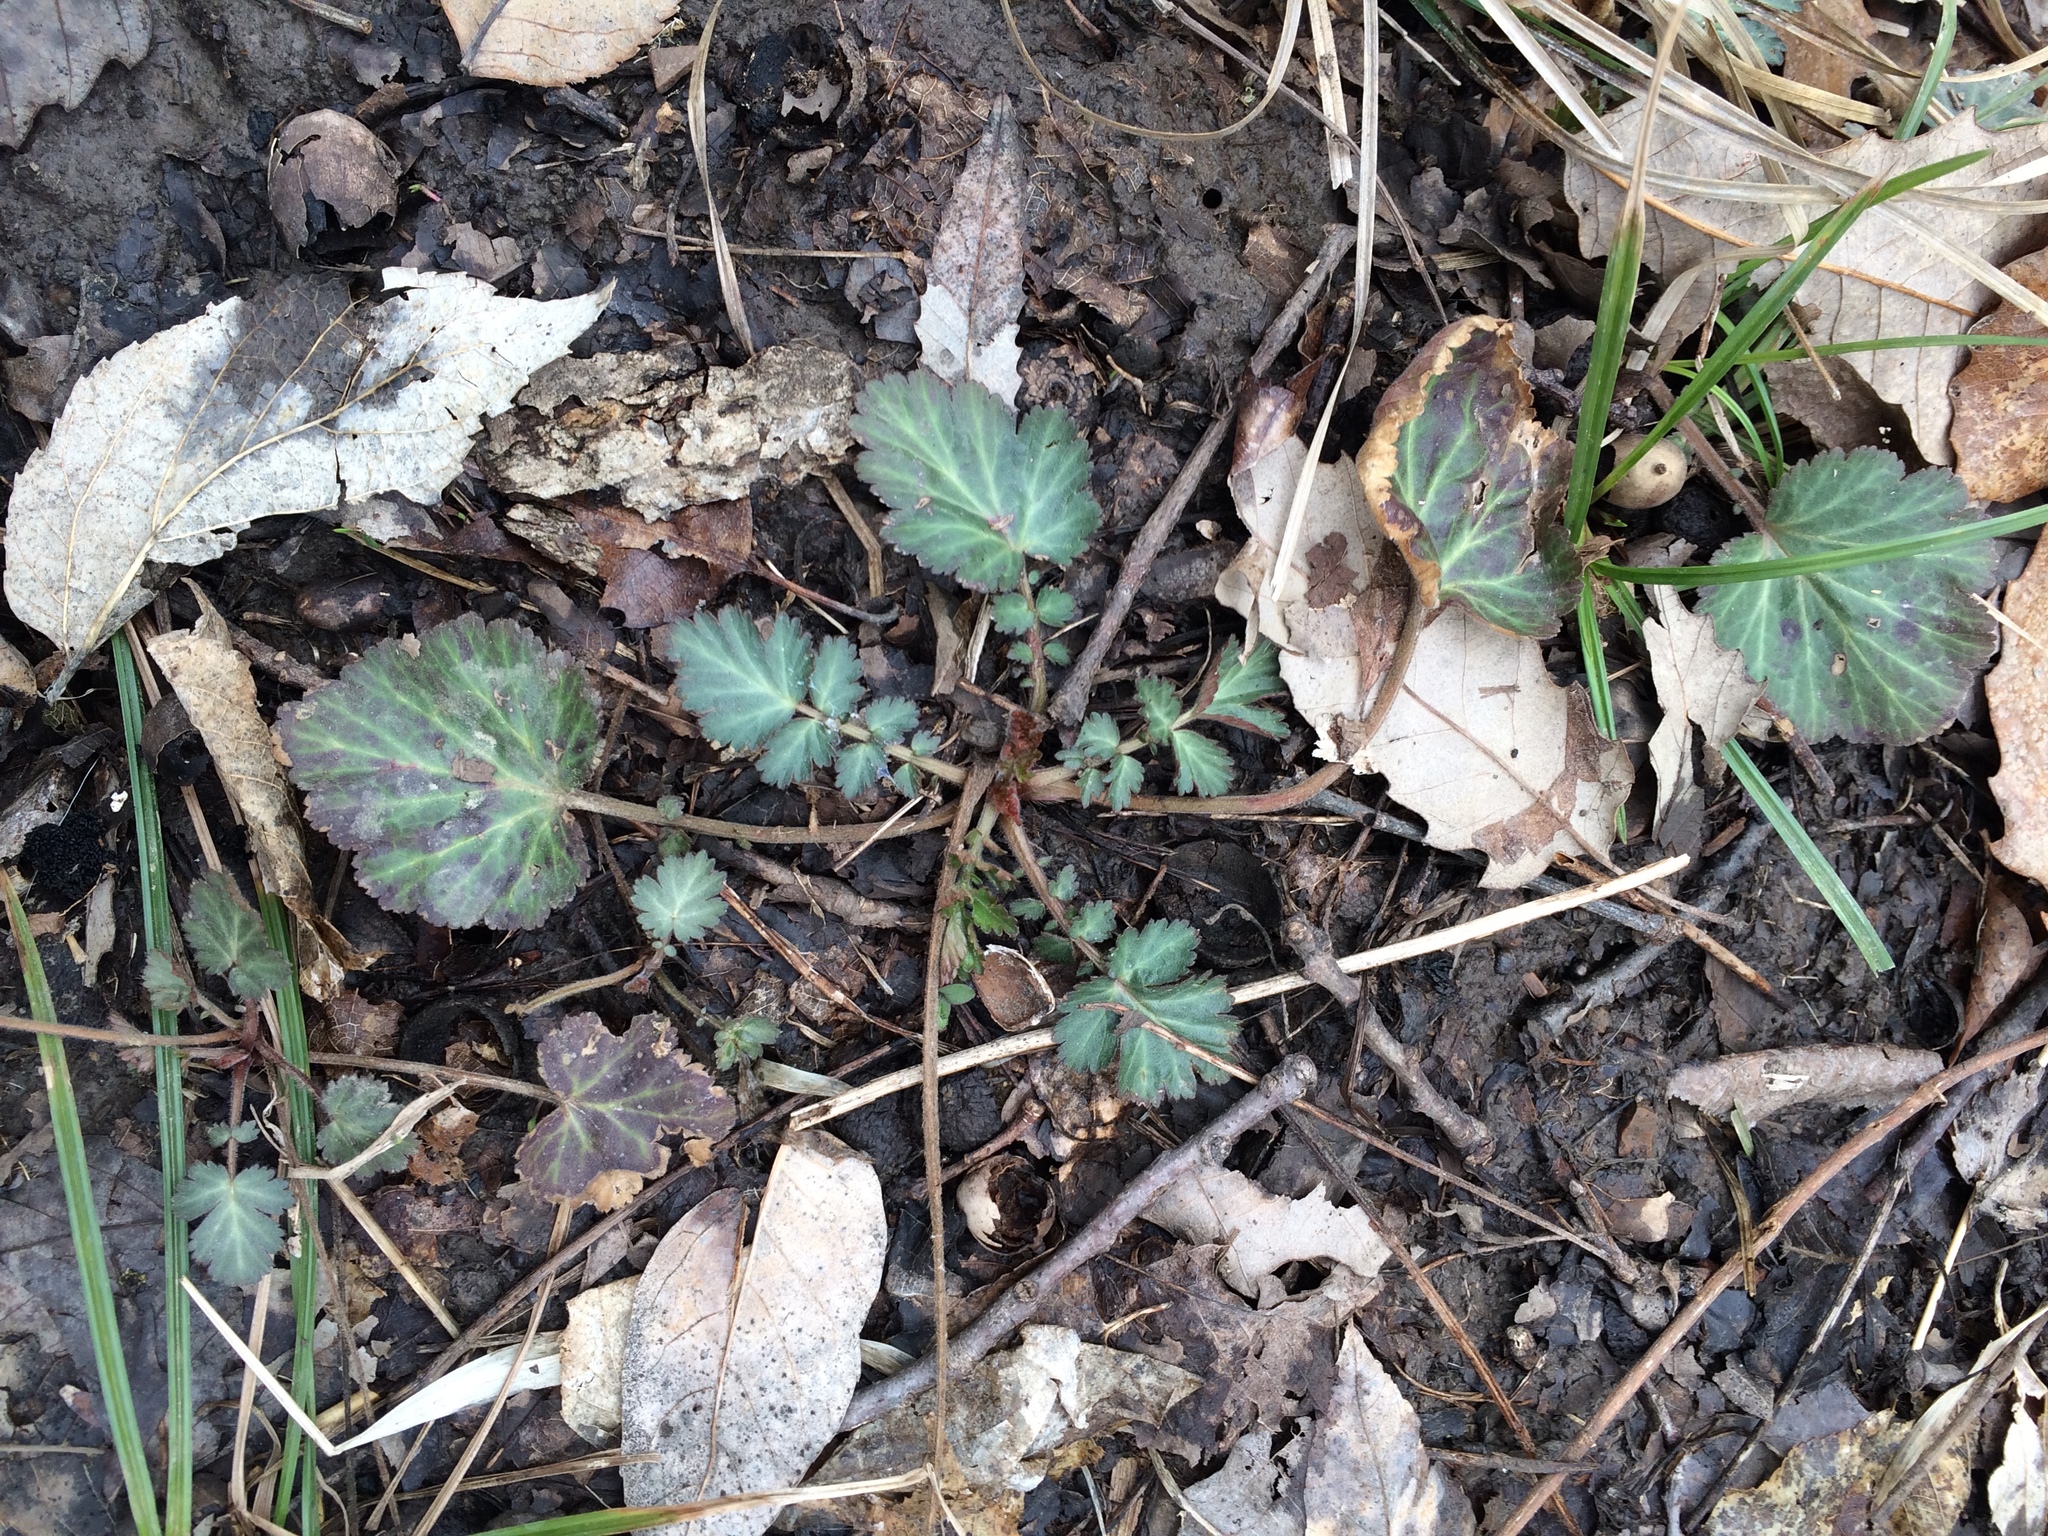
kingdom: Plantae
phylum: Tracheophyta
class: Magnoliopsida
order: Rosales
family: Rosaceae
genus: Geum
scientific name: Geum canadense
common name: White avens
